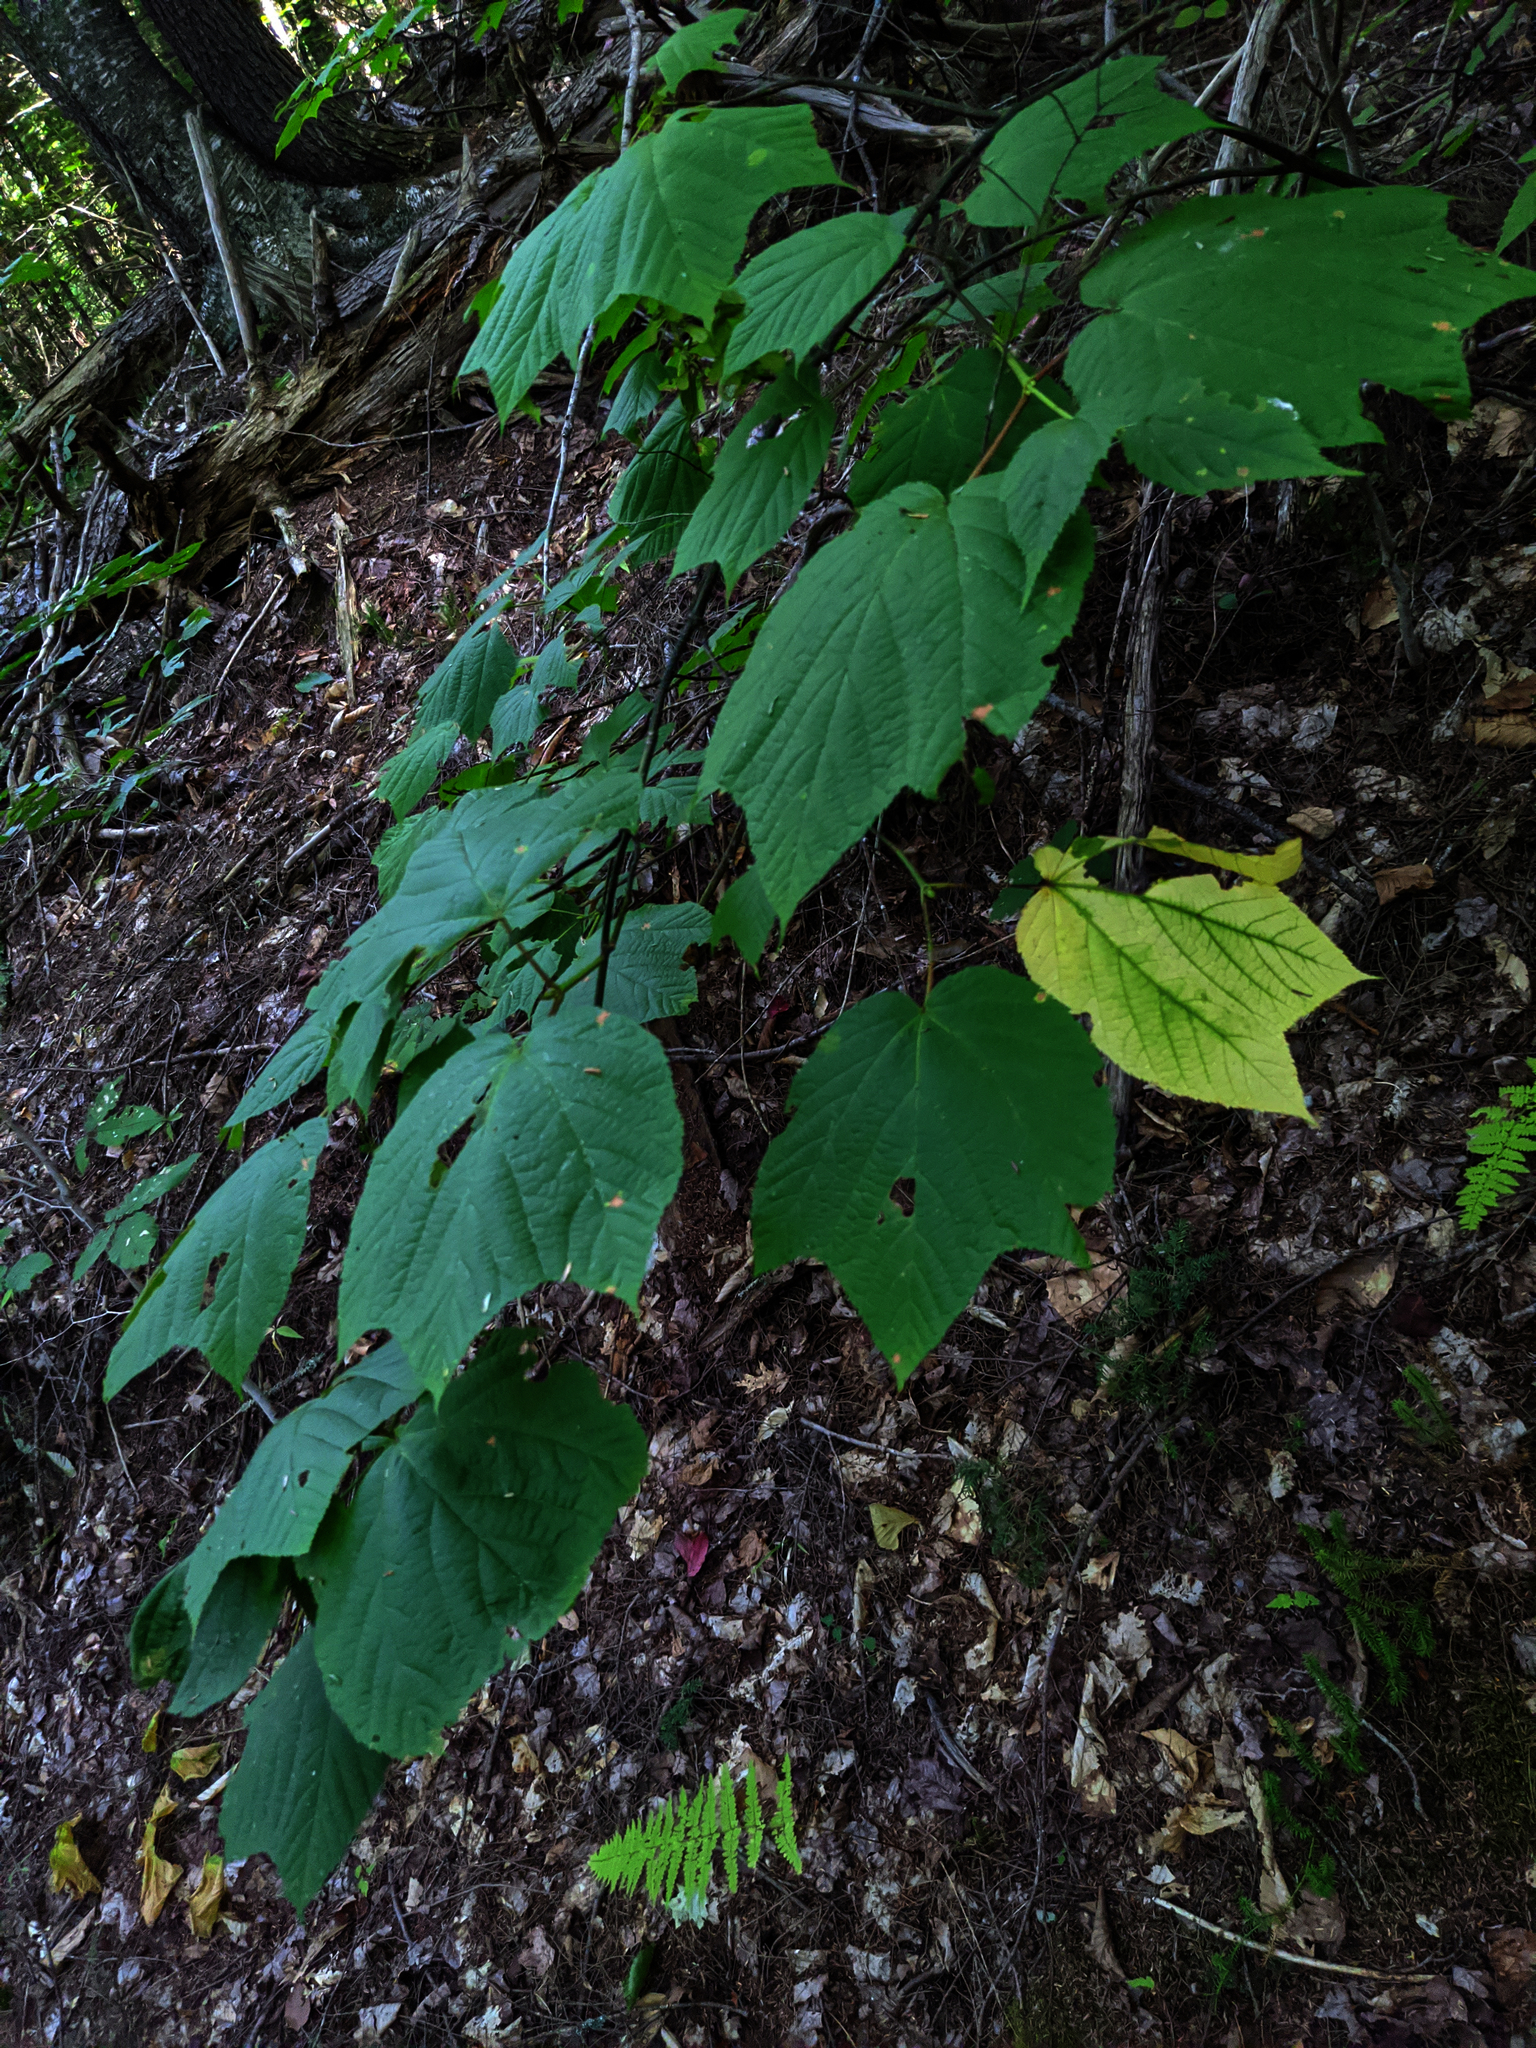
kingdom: Plantae
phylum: Tracheophyta
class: Magnoliopsida
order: Sapindales
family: Sapindaceae
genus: Acer
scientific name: Acer pensylvanicum
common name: Moosewood
